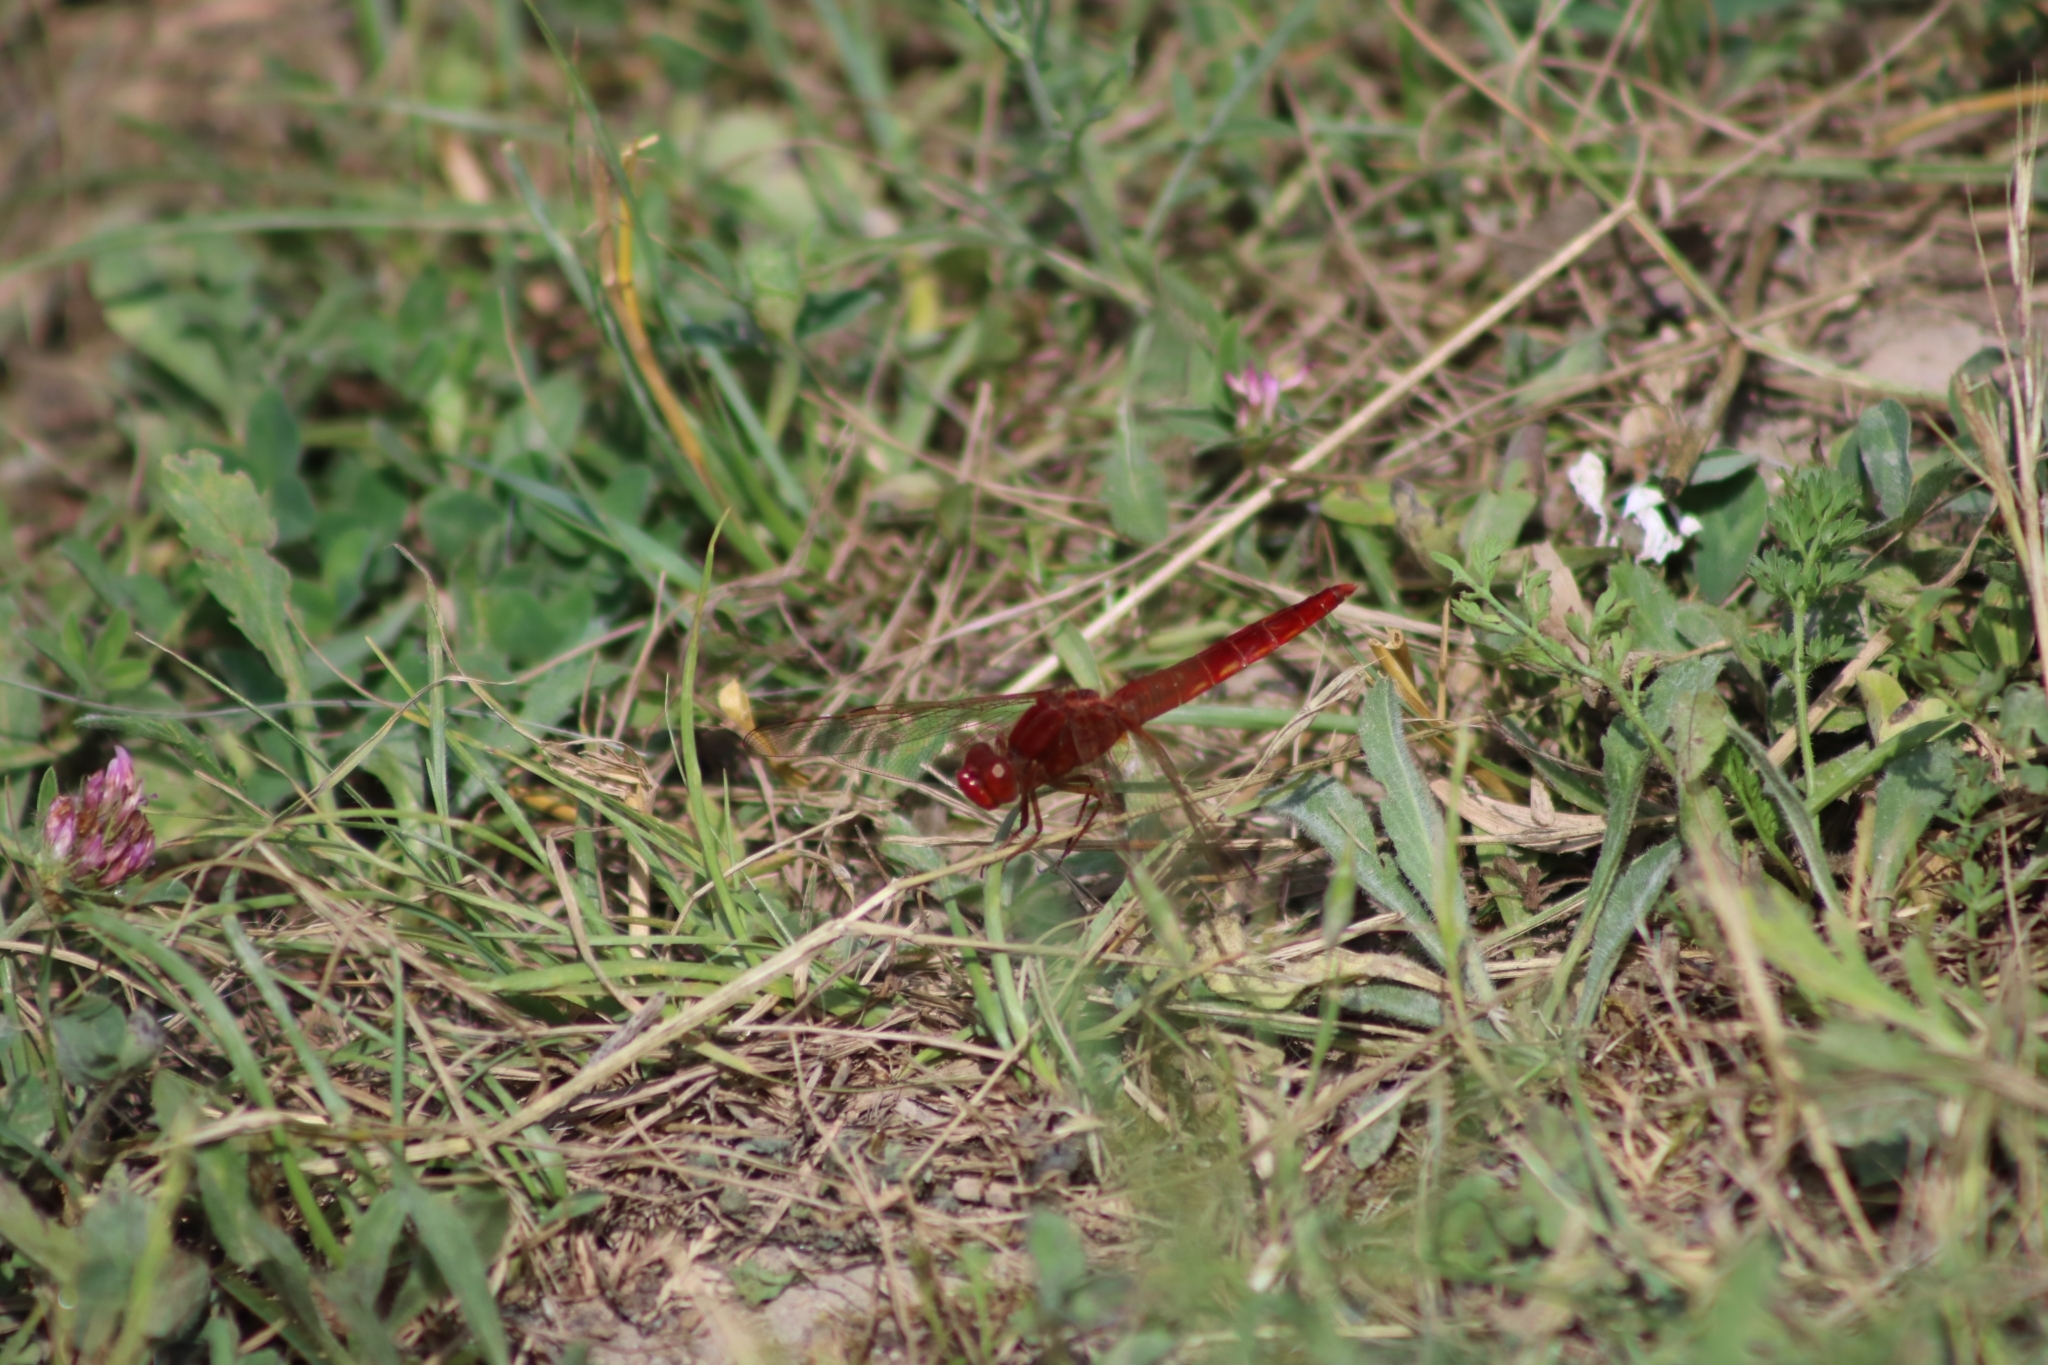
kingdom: Animalia
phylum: Arthropoda
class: Insecta
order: Odonata
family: Libellulidae
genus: Crocothemis
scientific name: Crocothemis erythraea
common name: Scarlet dragonfly
